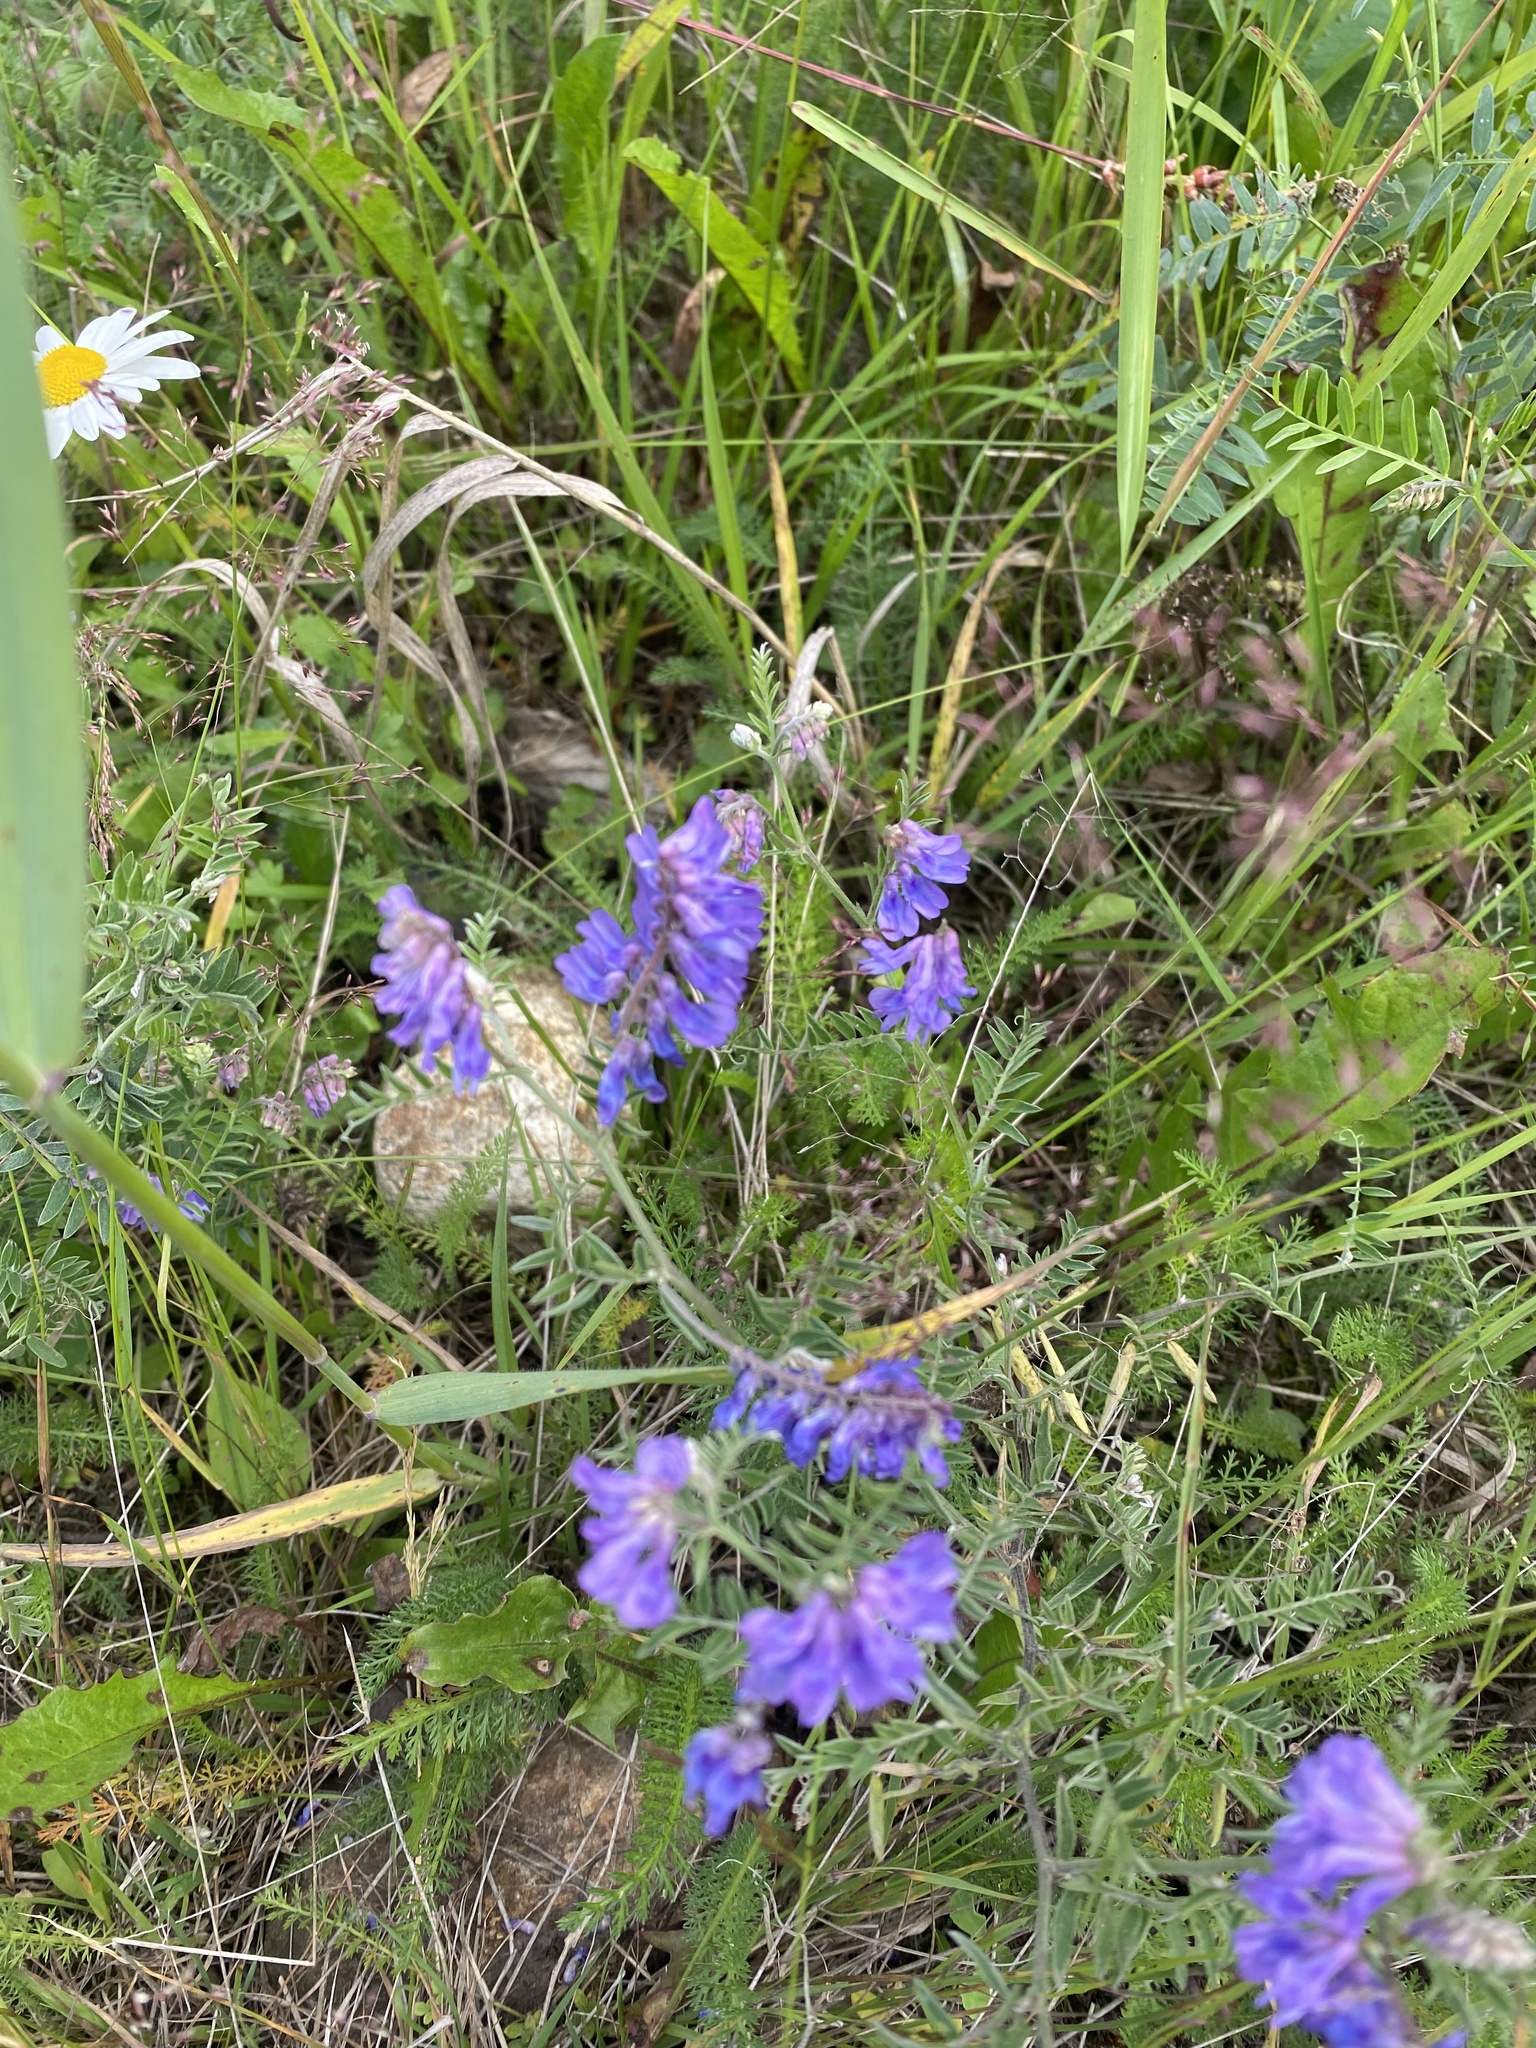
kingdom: Plantae
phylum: Tracheophyta
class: Magnoliopsida
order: Fabales
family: Fabaceae
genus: Vicia
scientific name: Vicia cracca
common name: Bird vetch
